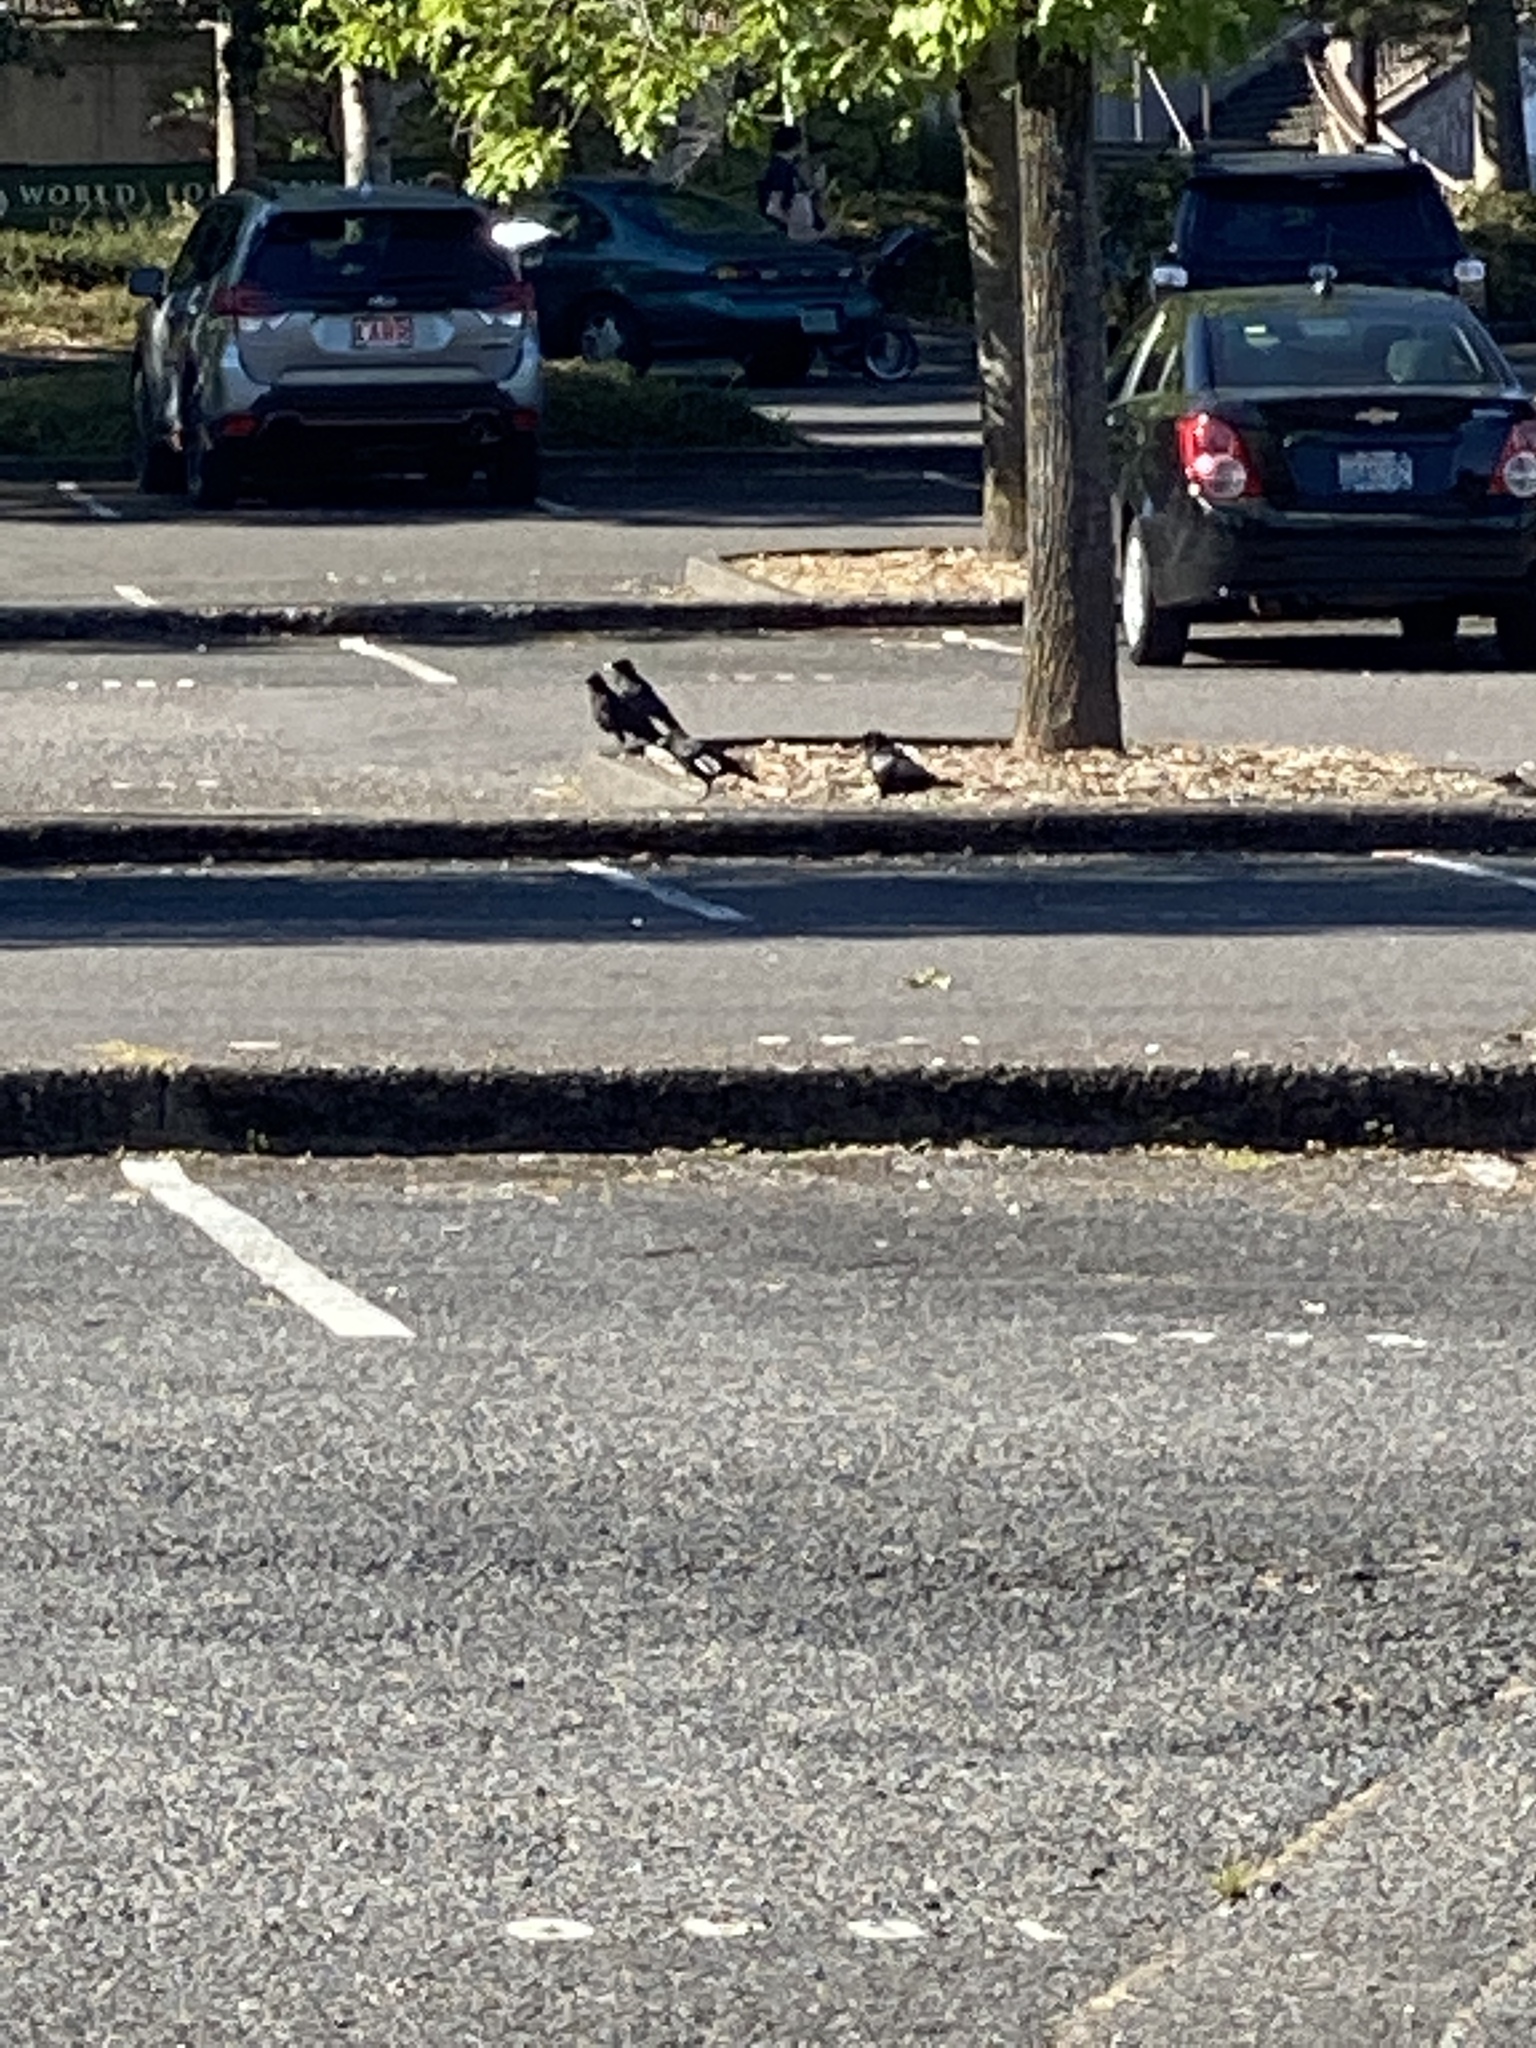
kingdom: Animalia
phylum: Chordata
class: Aves
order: Passeriformes
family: Corvidae
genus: Corvus
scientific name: Corvus brachyrhynchos
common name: American crow
